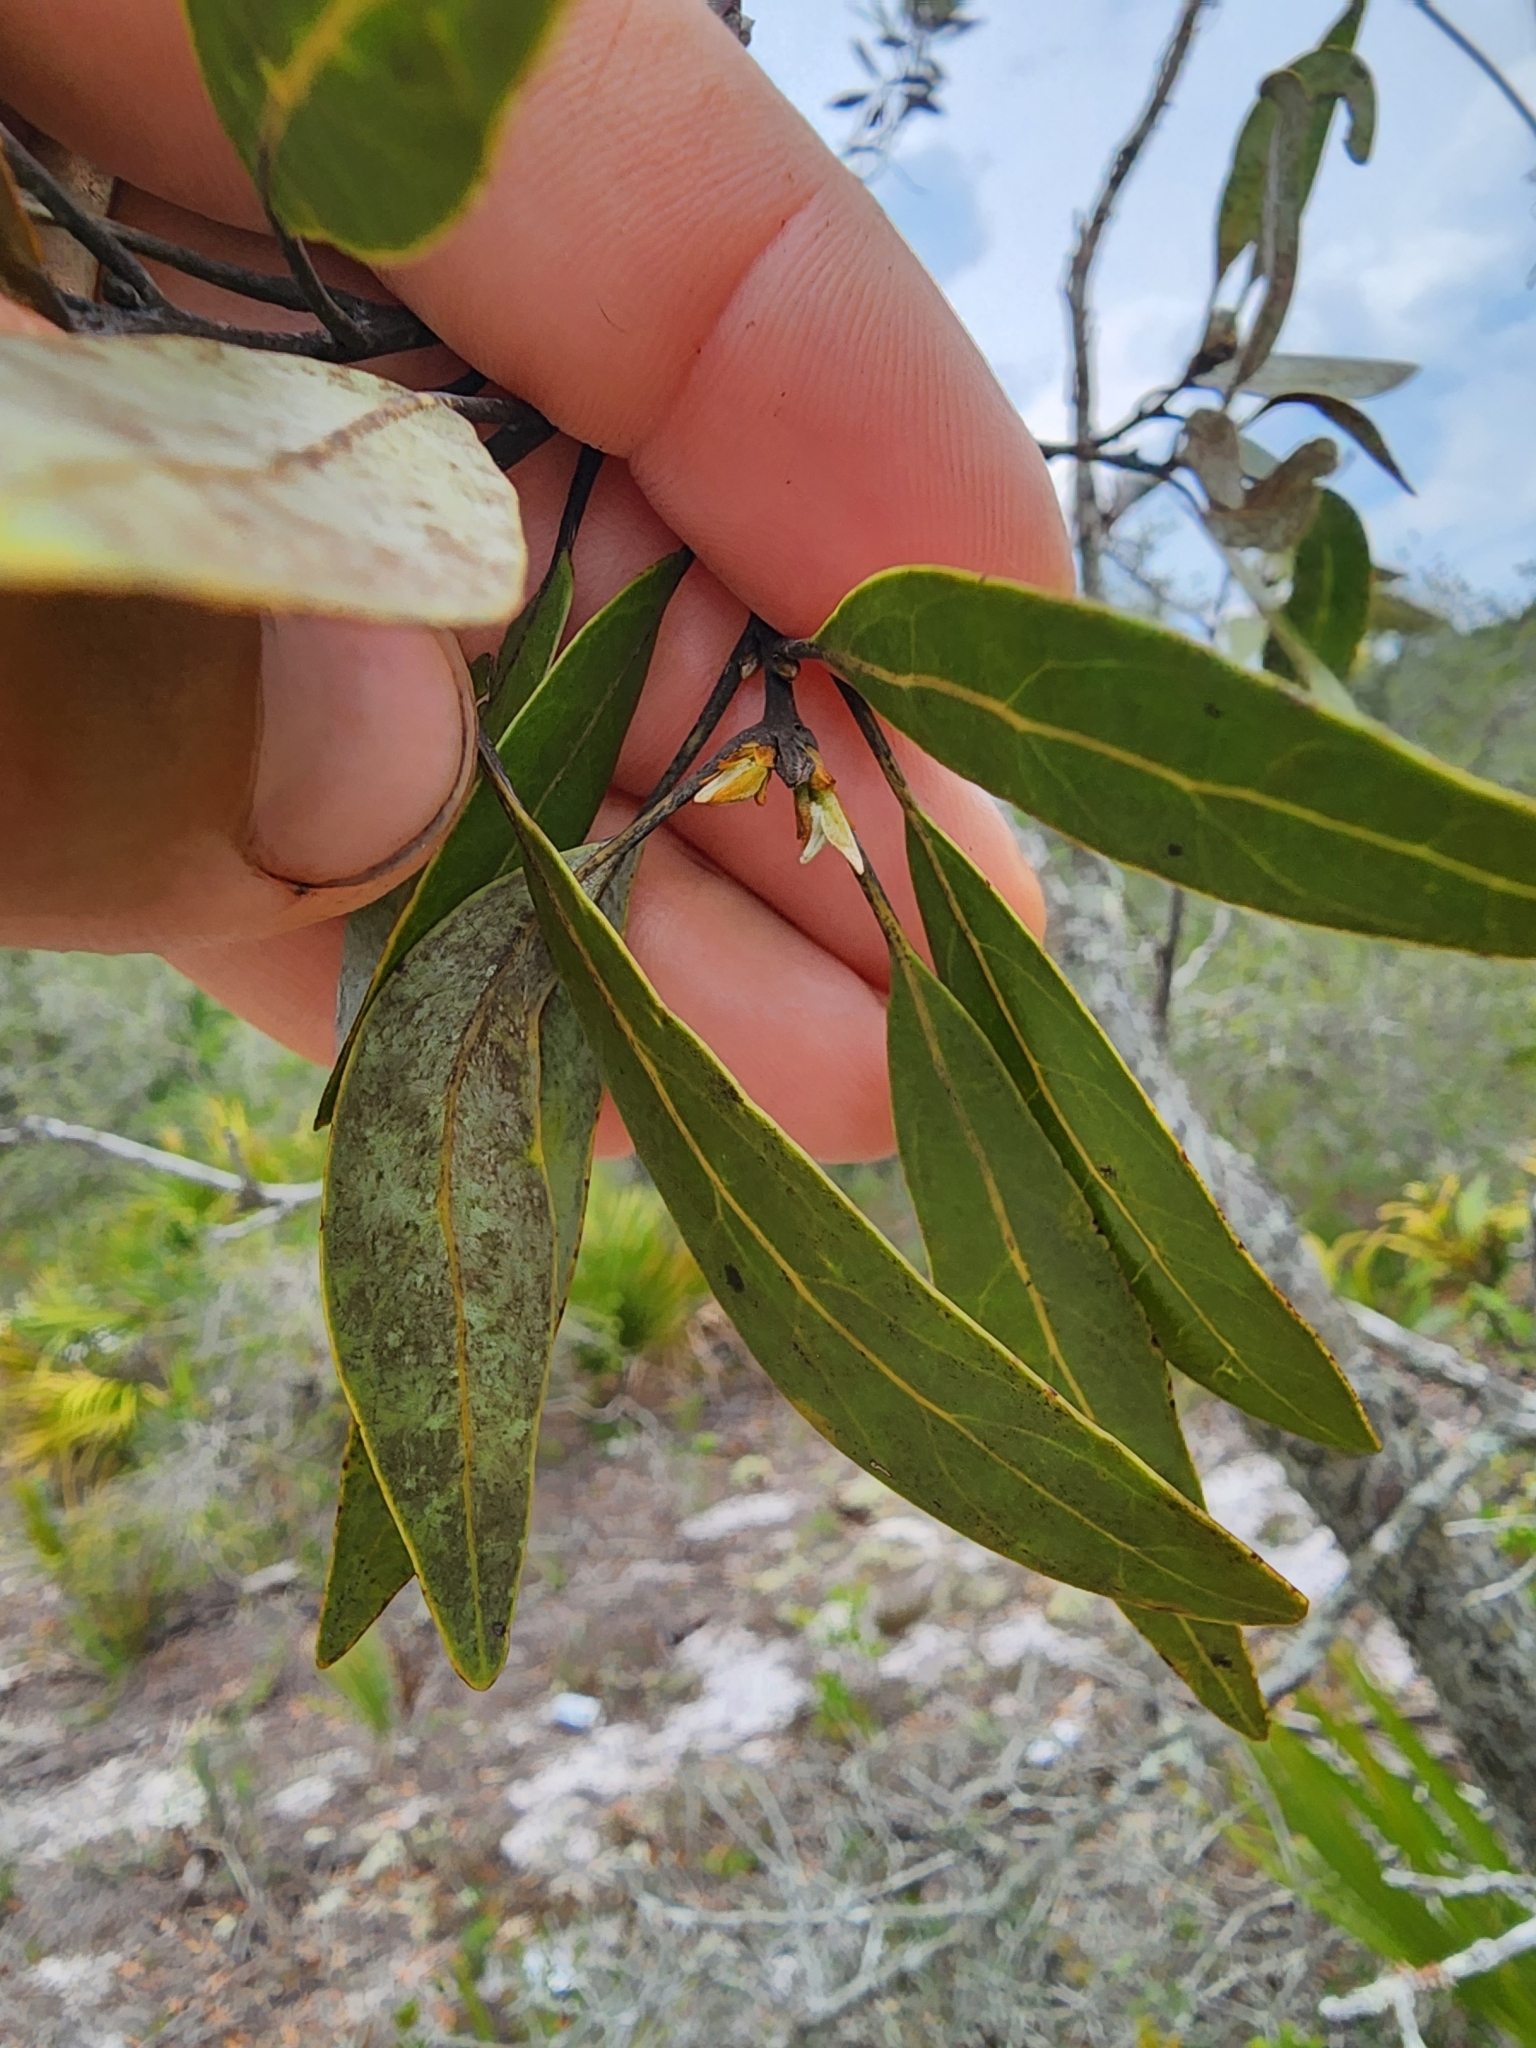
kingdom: Plantae
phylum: Tracheophyta
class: Magnoliopsida
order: Laurales
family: Lauraceae
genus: Persea
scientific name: Persea humilis
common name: Silkbay
